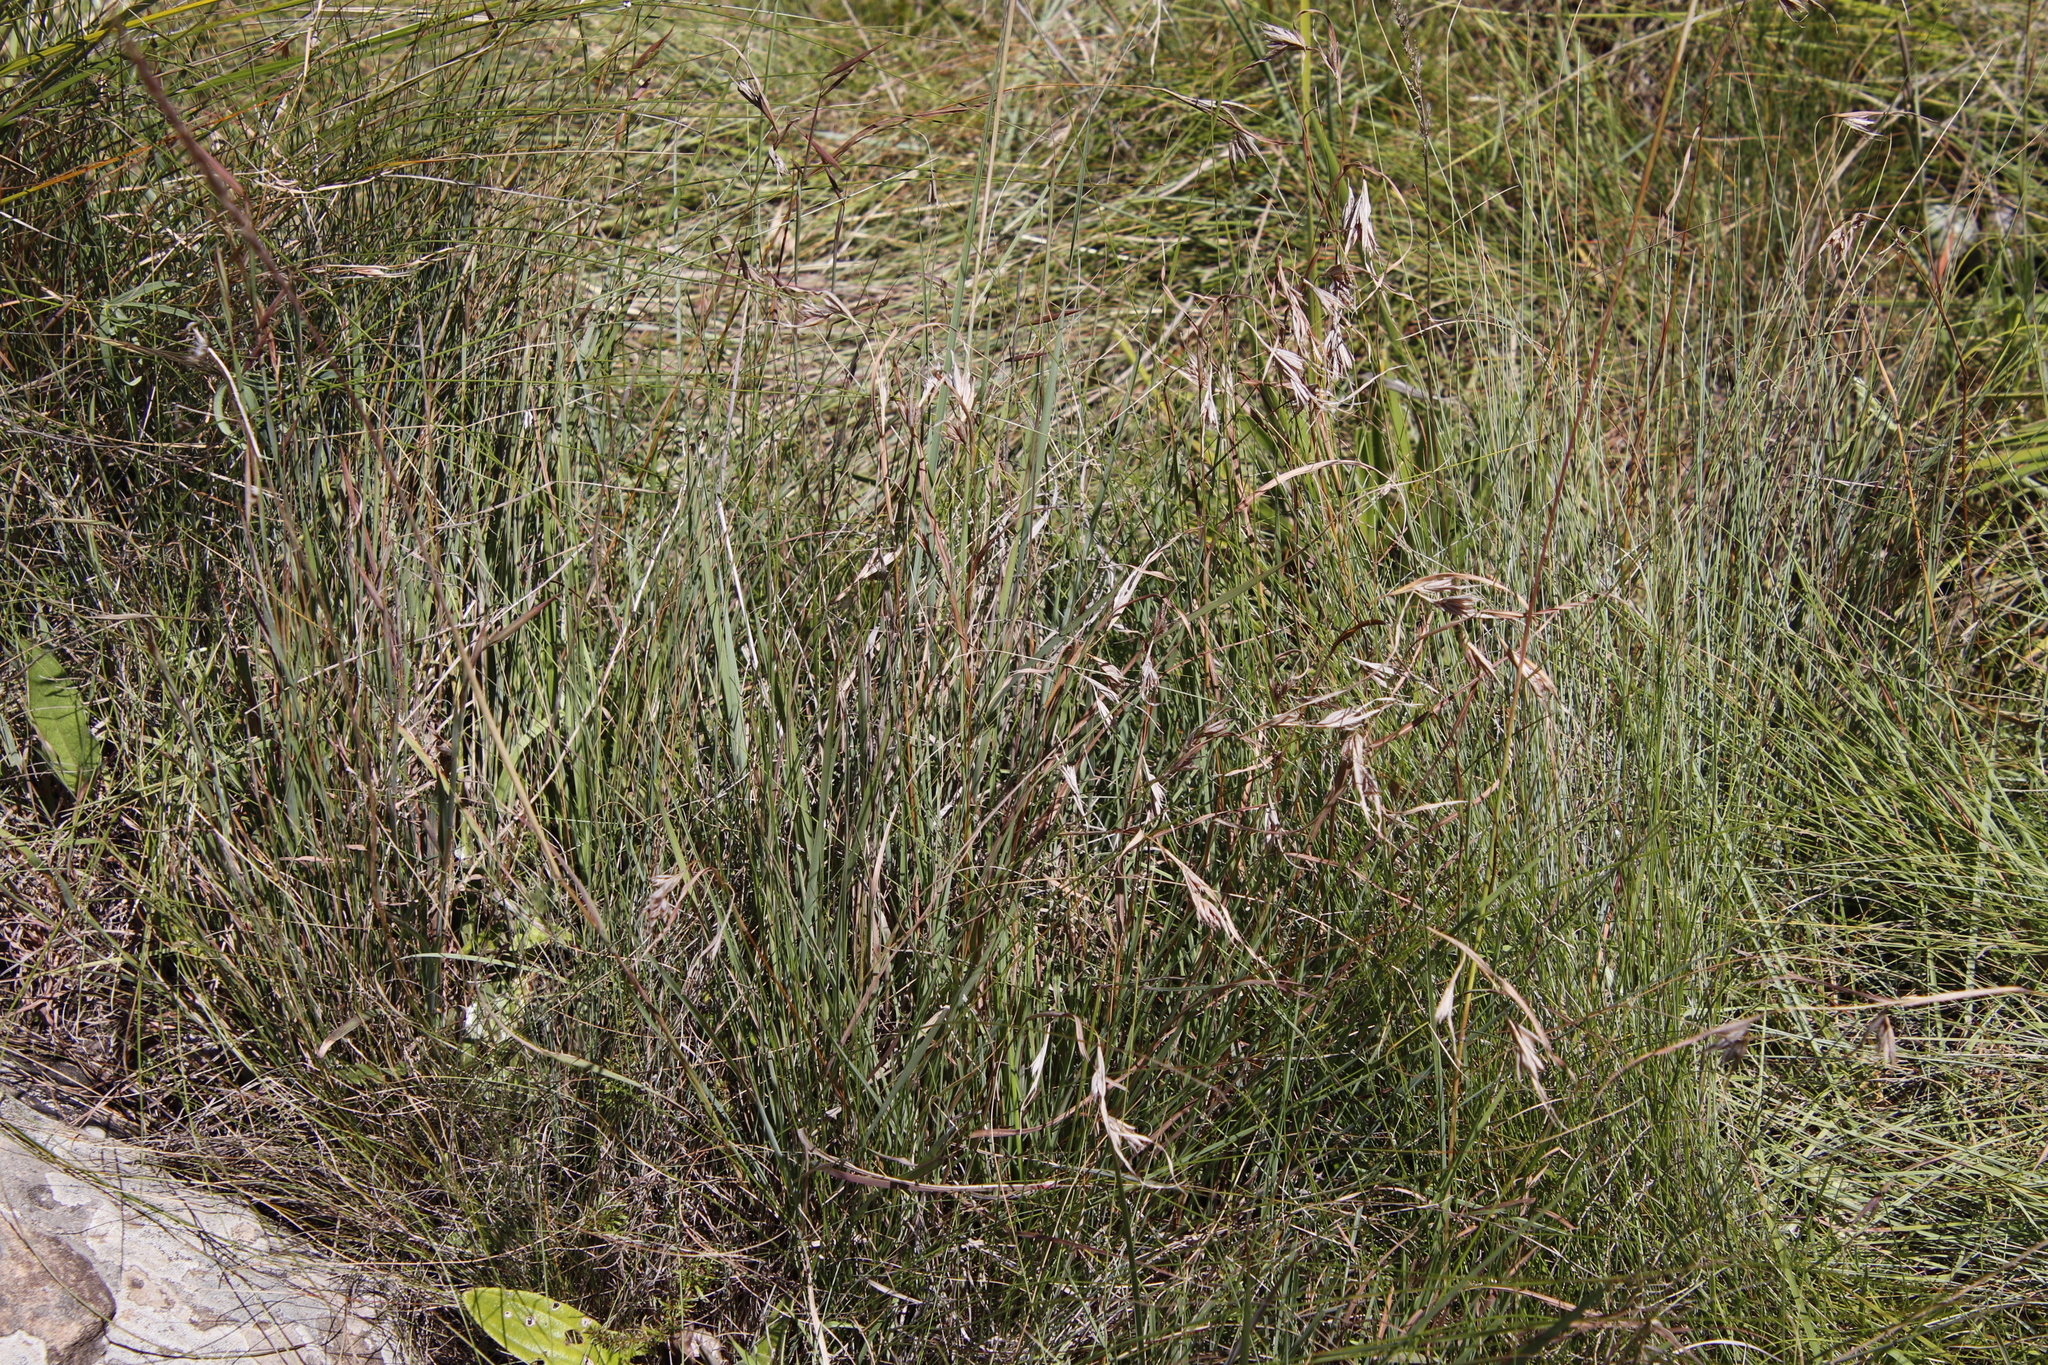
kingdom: Plantae
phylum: Tracheophyta
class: Liliopsida
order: Poales
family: Poaceae
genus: Themeda
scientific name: Themeda triandra
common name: Kangaroo grass
